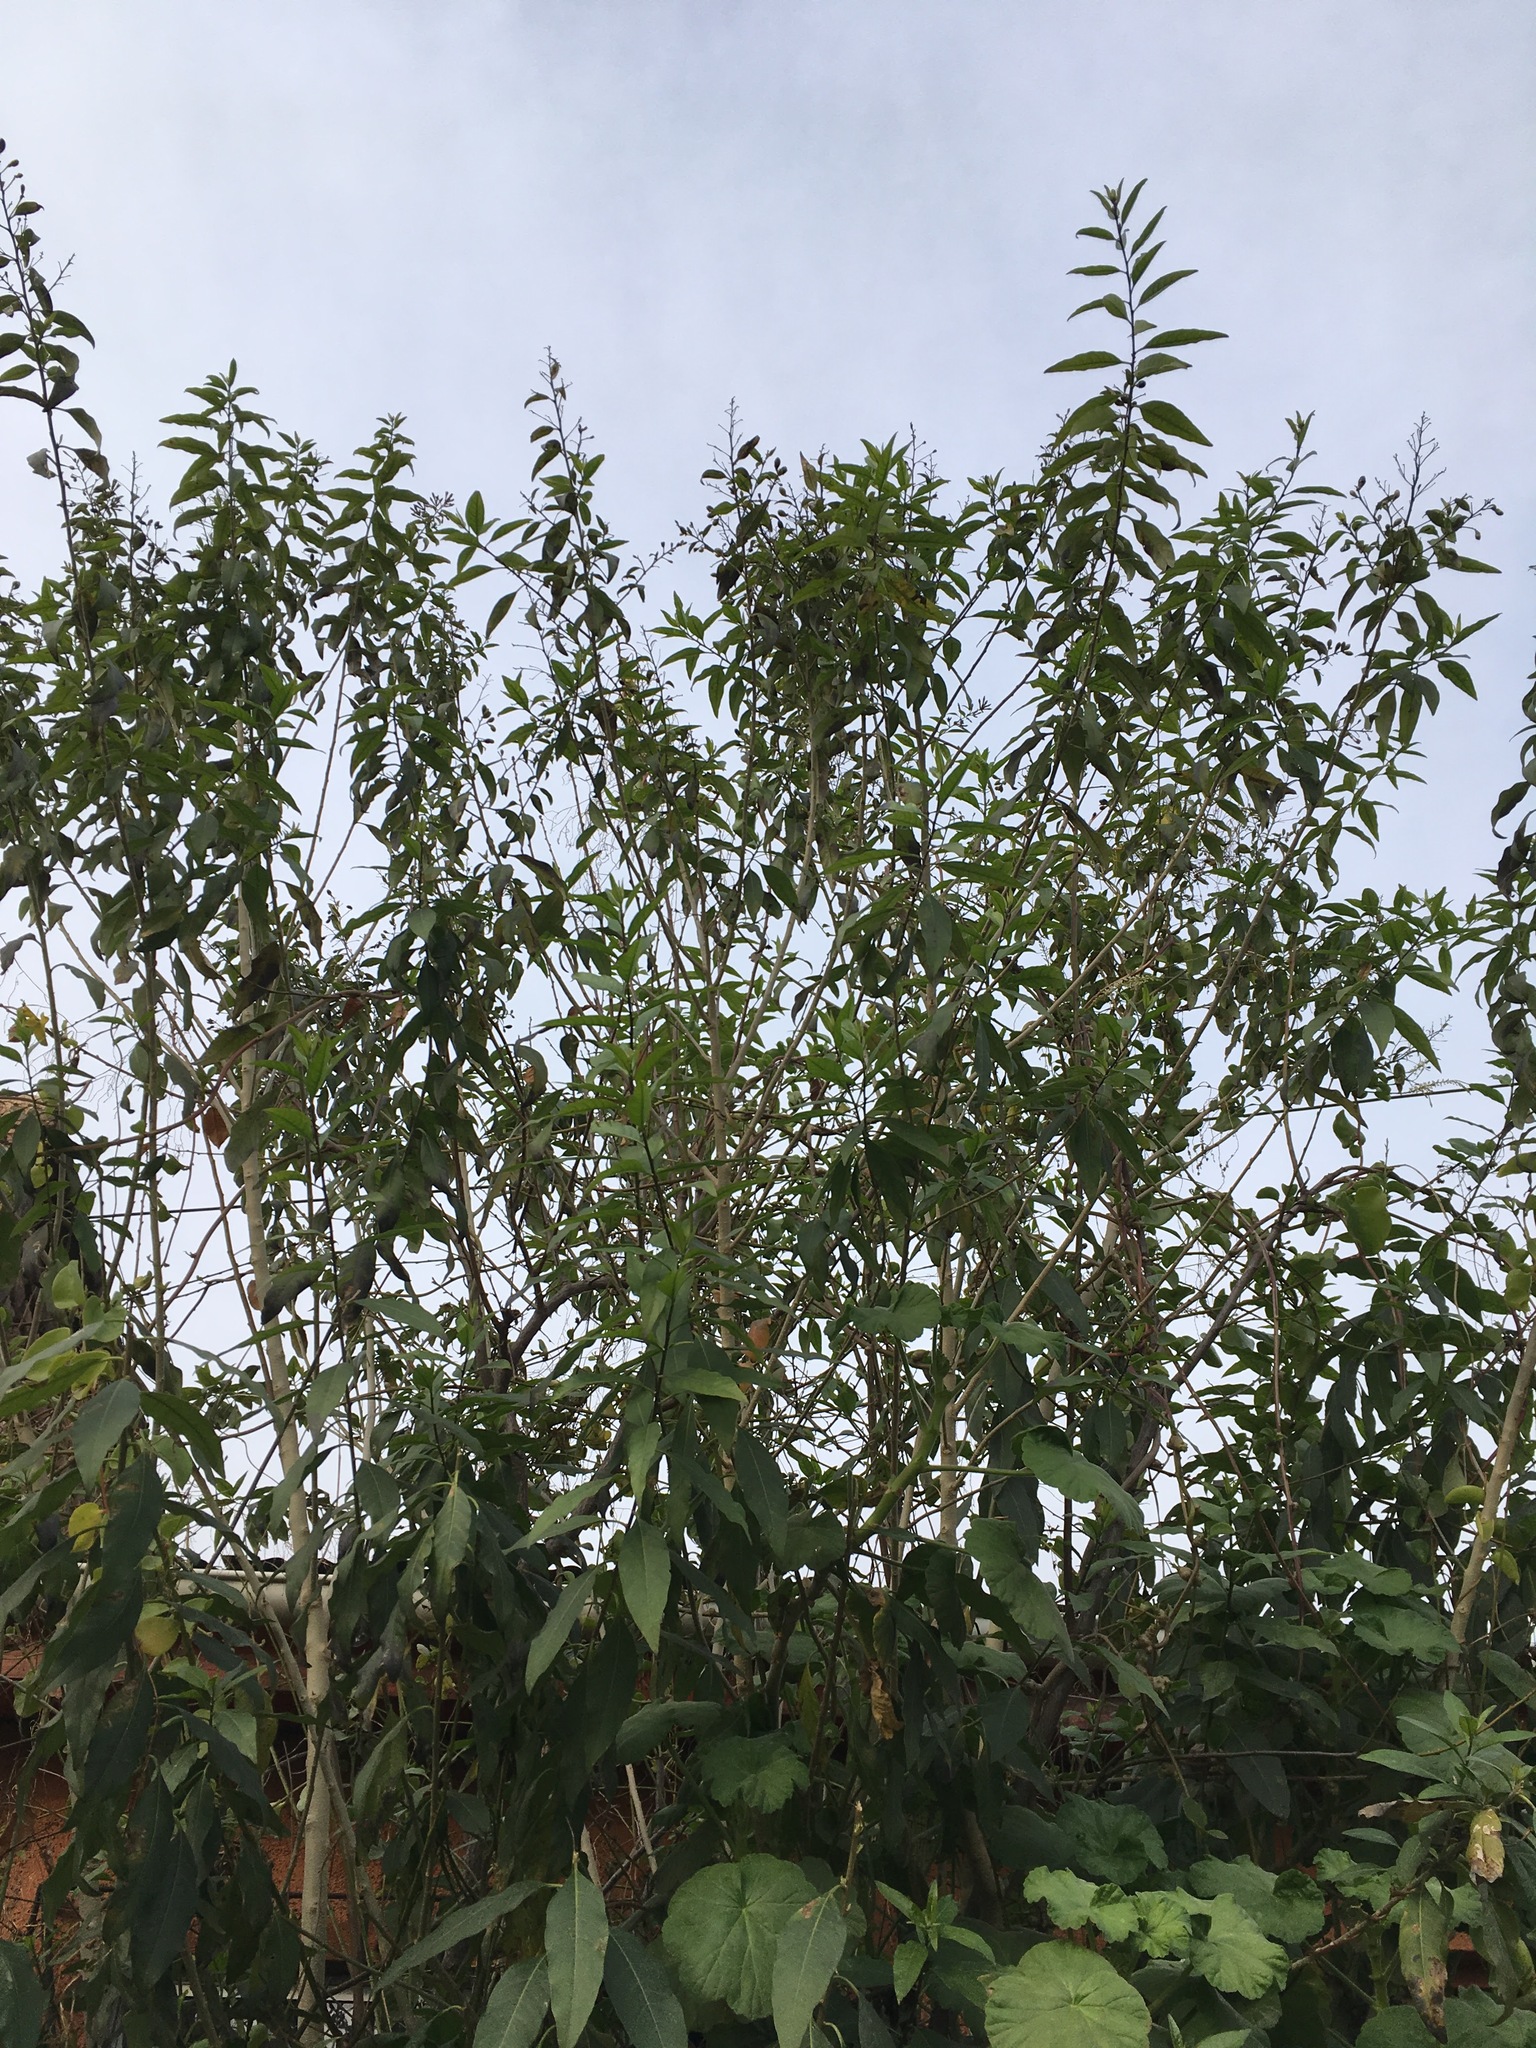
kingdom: Plantae
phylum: Tracheophyta
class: Magnoliopsida
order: Solanales
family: Solanaceae
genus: Cestrum
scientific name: Cestrum parqui
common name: Chilean cestrum
